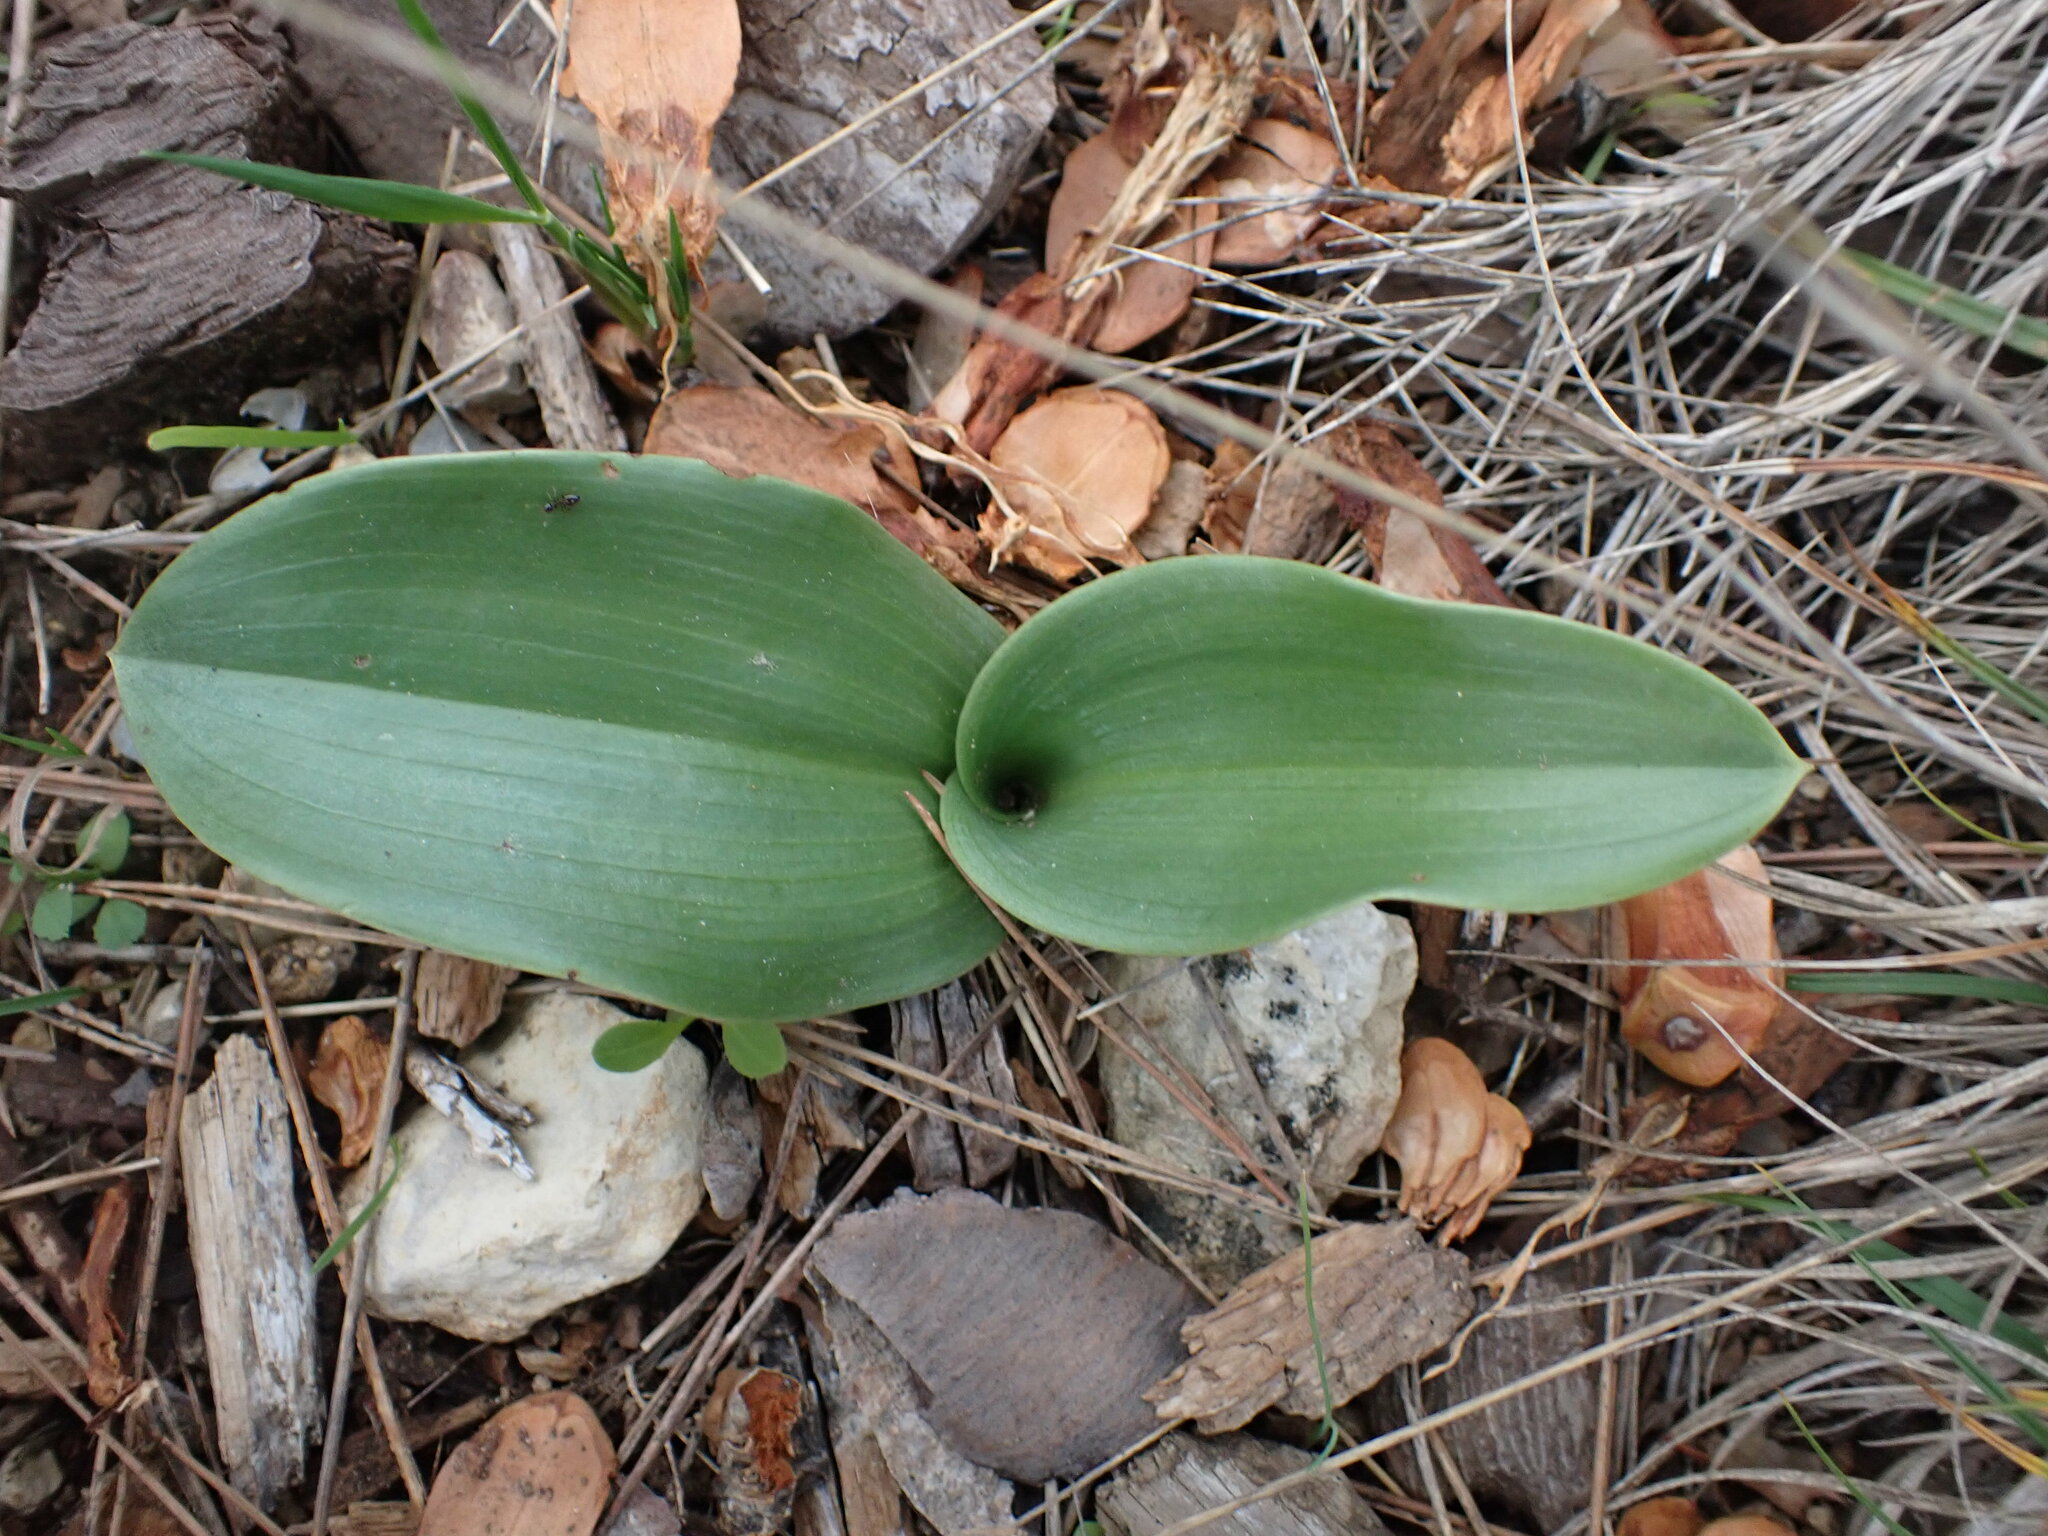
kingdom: Plantae
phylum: Tracheophyta
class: Liliopsida
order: Asparagales
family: Orchidaceae
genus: Himantoglossum
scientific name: Himantoglossum robertianum
